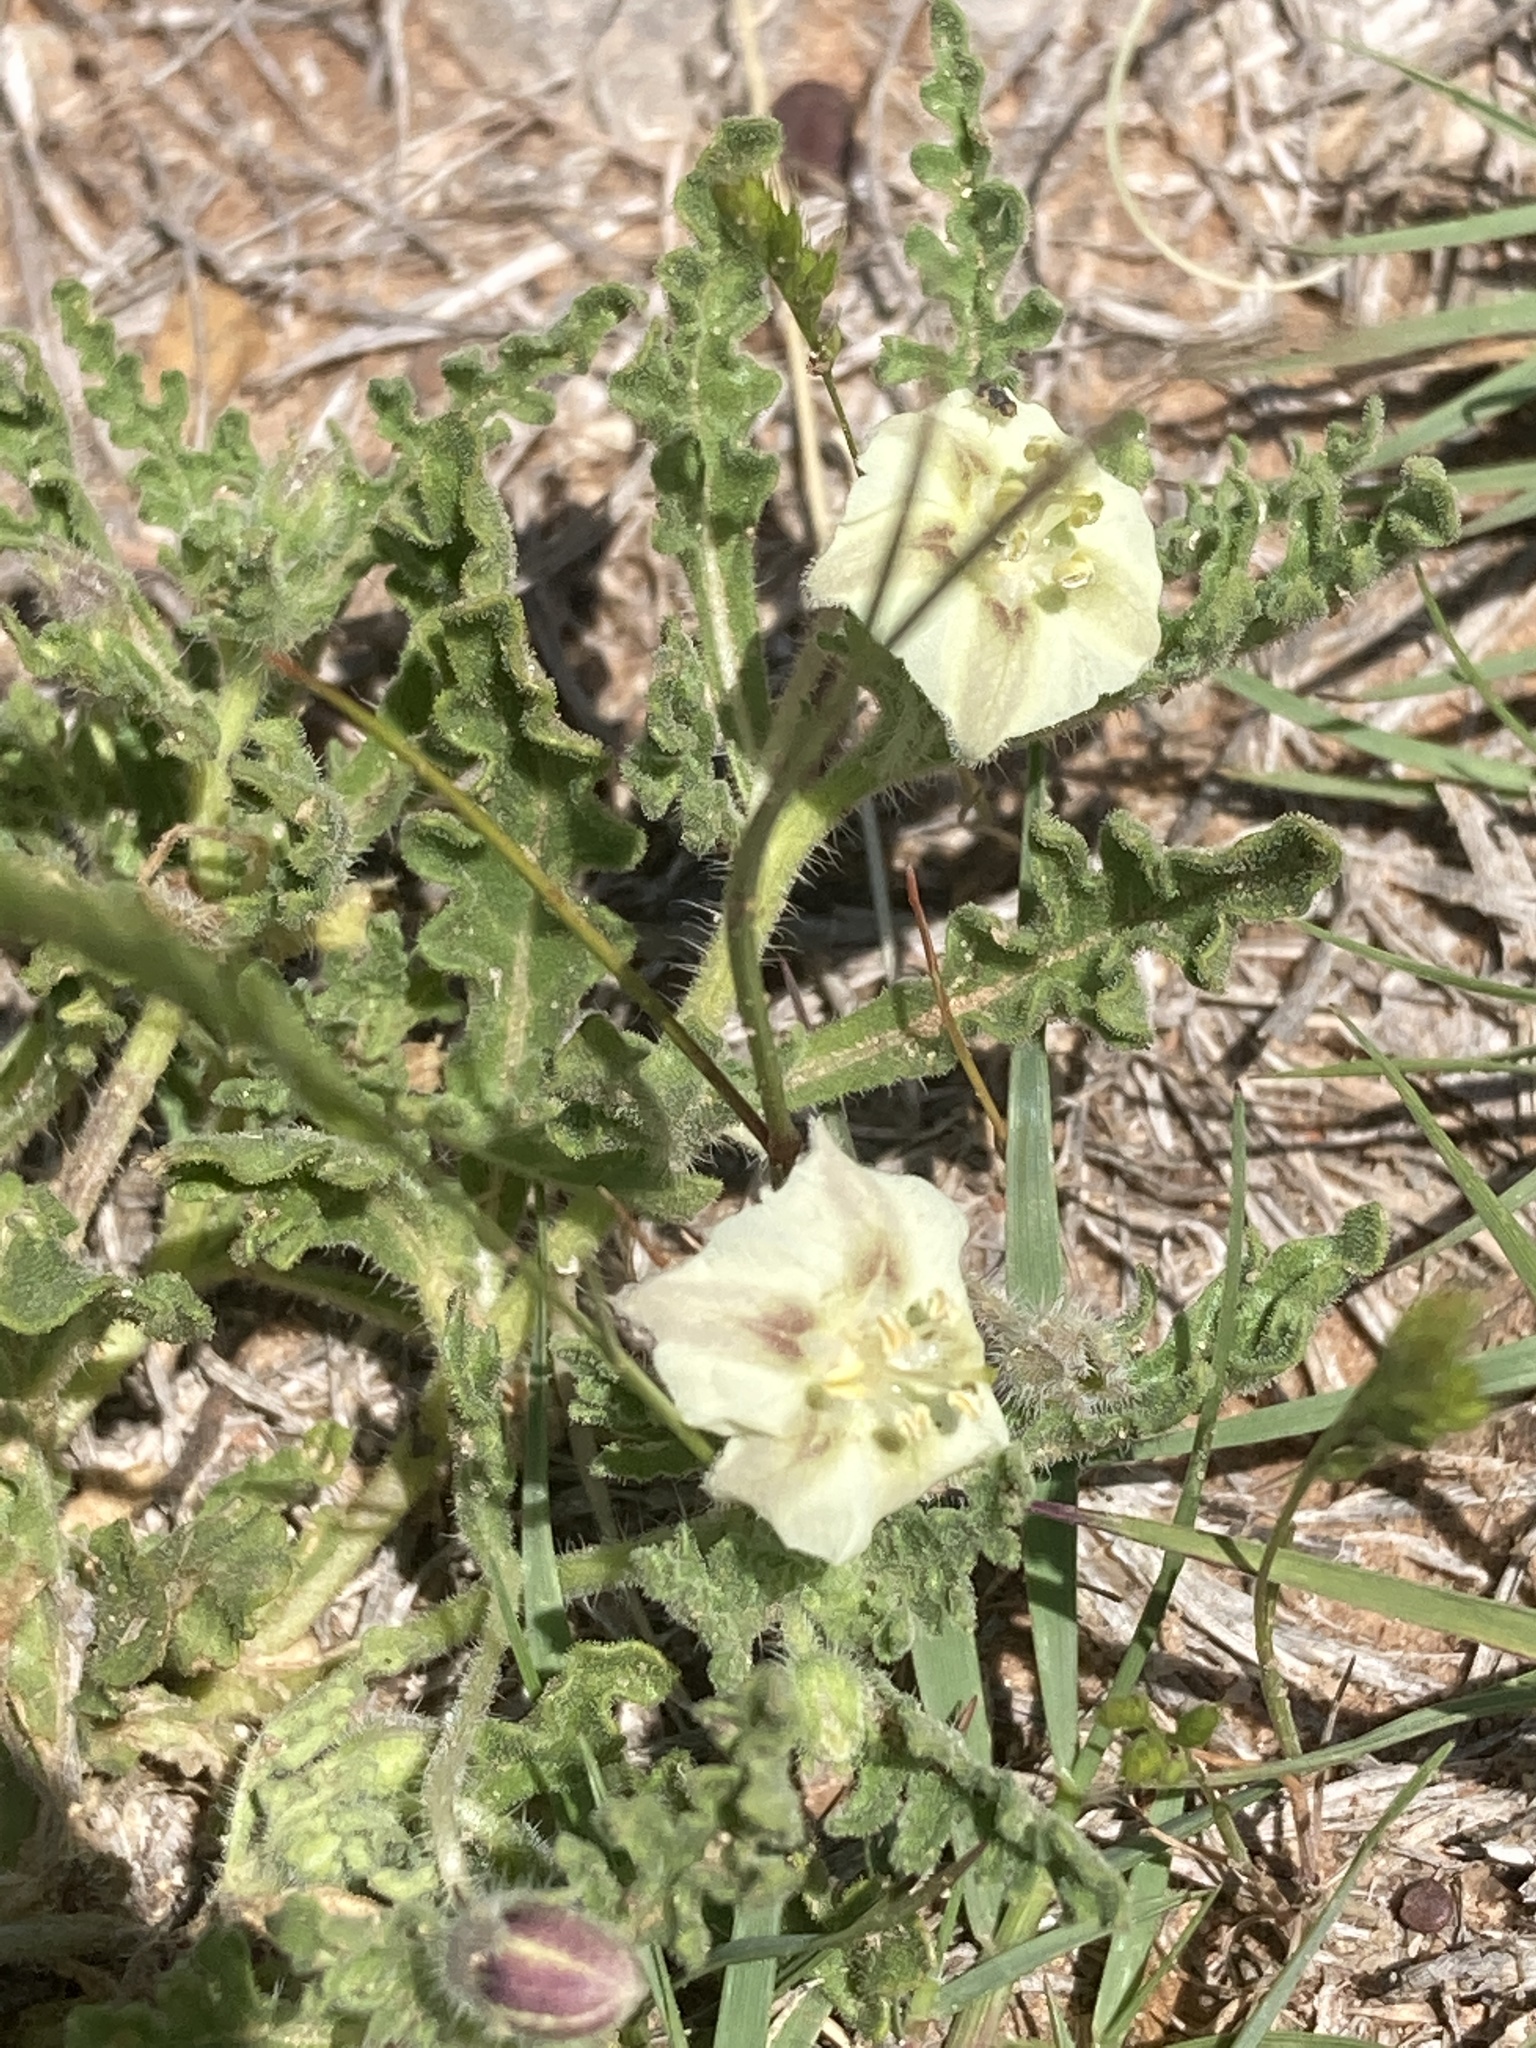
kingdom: Plantae
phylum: Tracheophyta
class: Magnoliopsida
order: Solanales
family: Solanaceae
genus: Chamaesaracha
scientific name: Chamaesaracha coniodes
